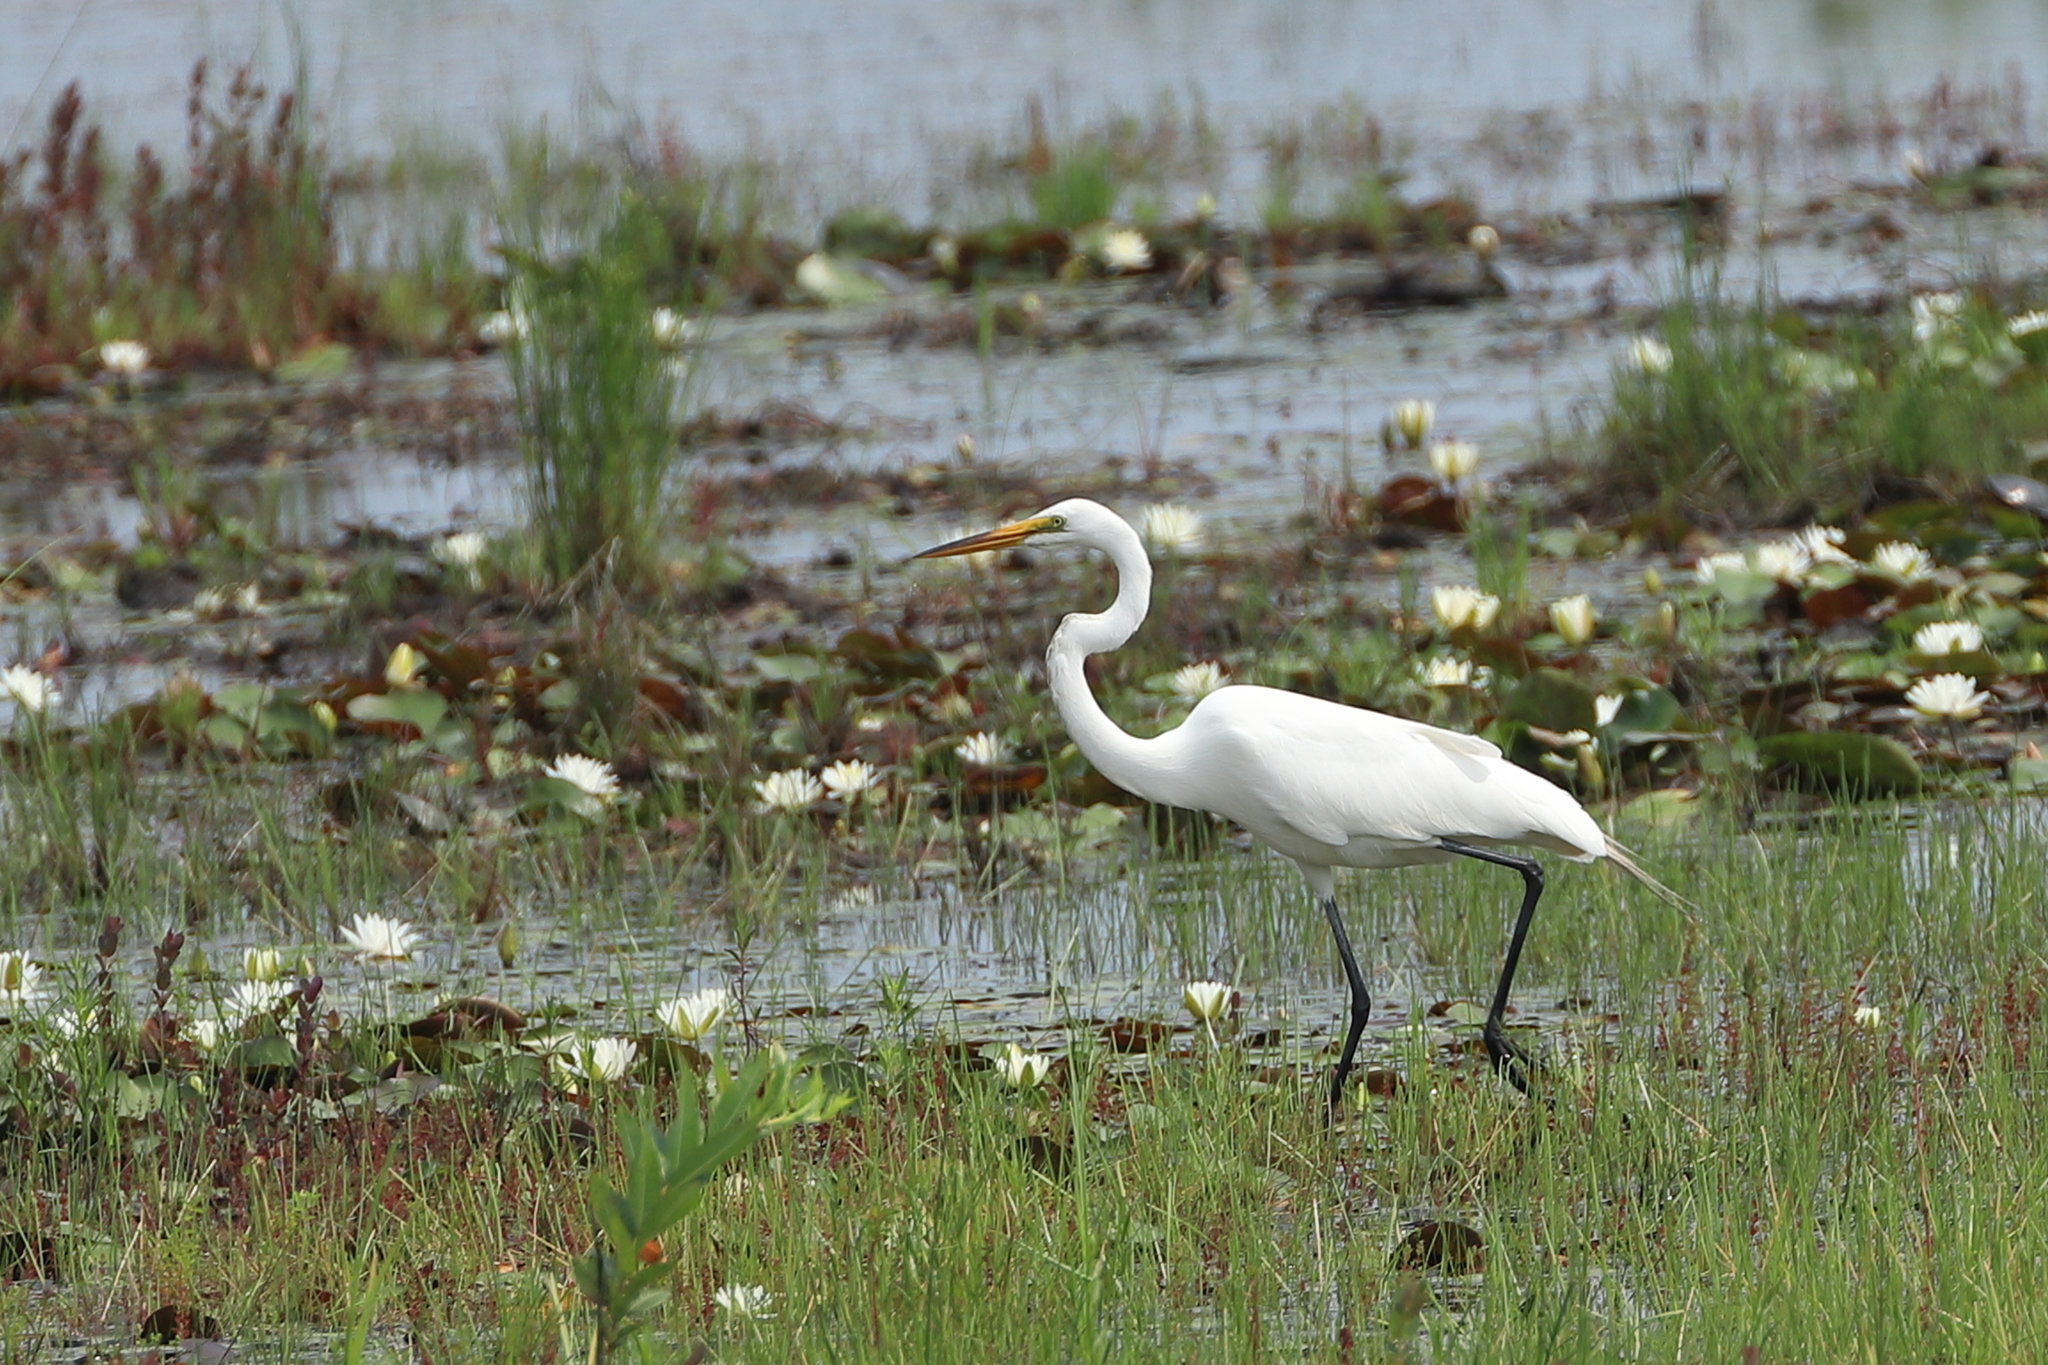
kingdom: Animalia
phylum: Chordata
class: Aves
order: Pelecaniformes
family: Ardeidae
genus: Ardea
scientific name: Ardea alba
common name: Great egret
